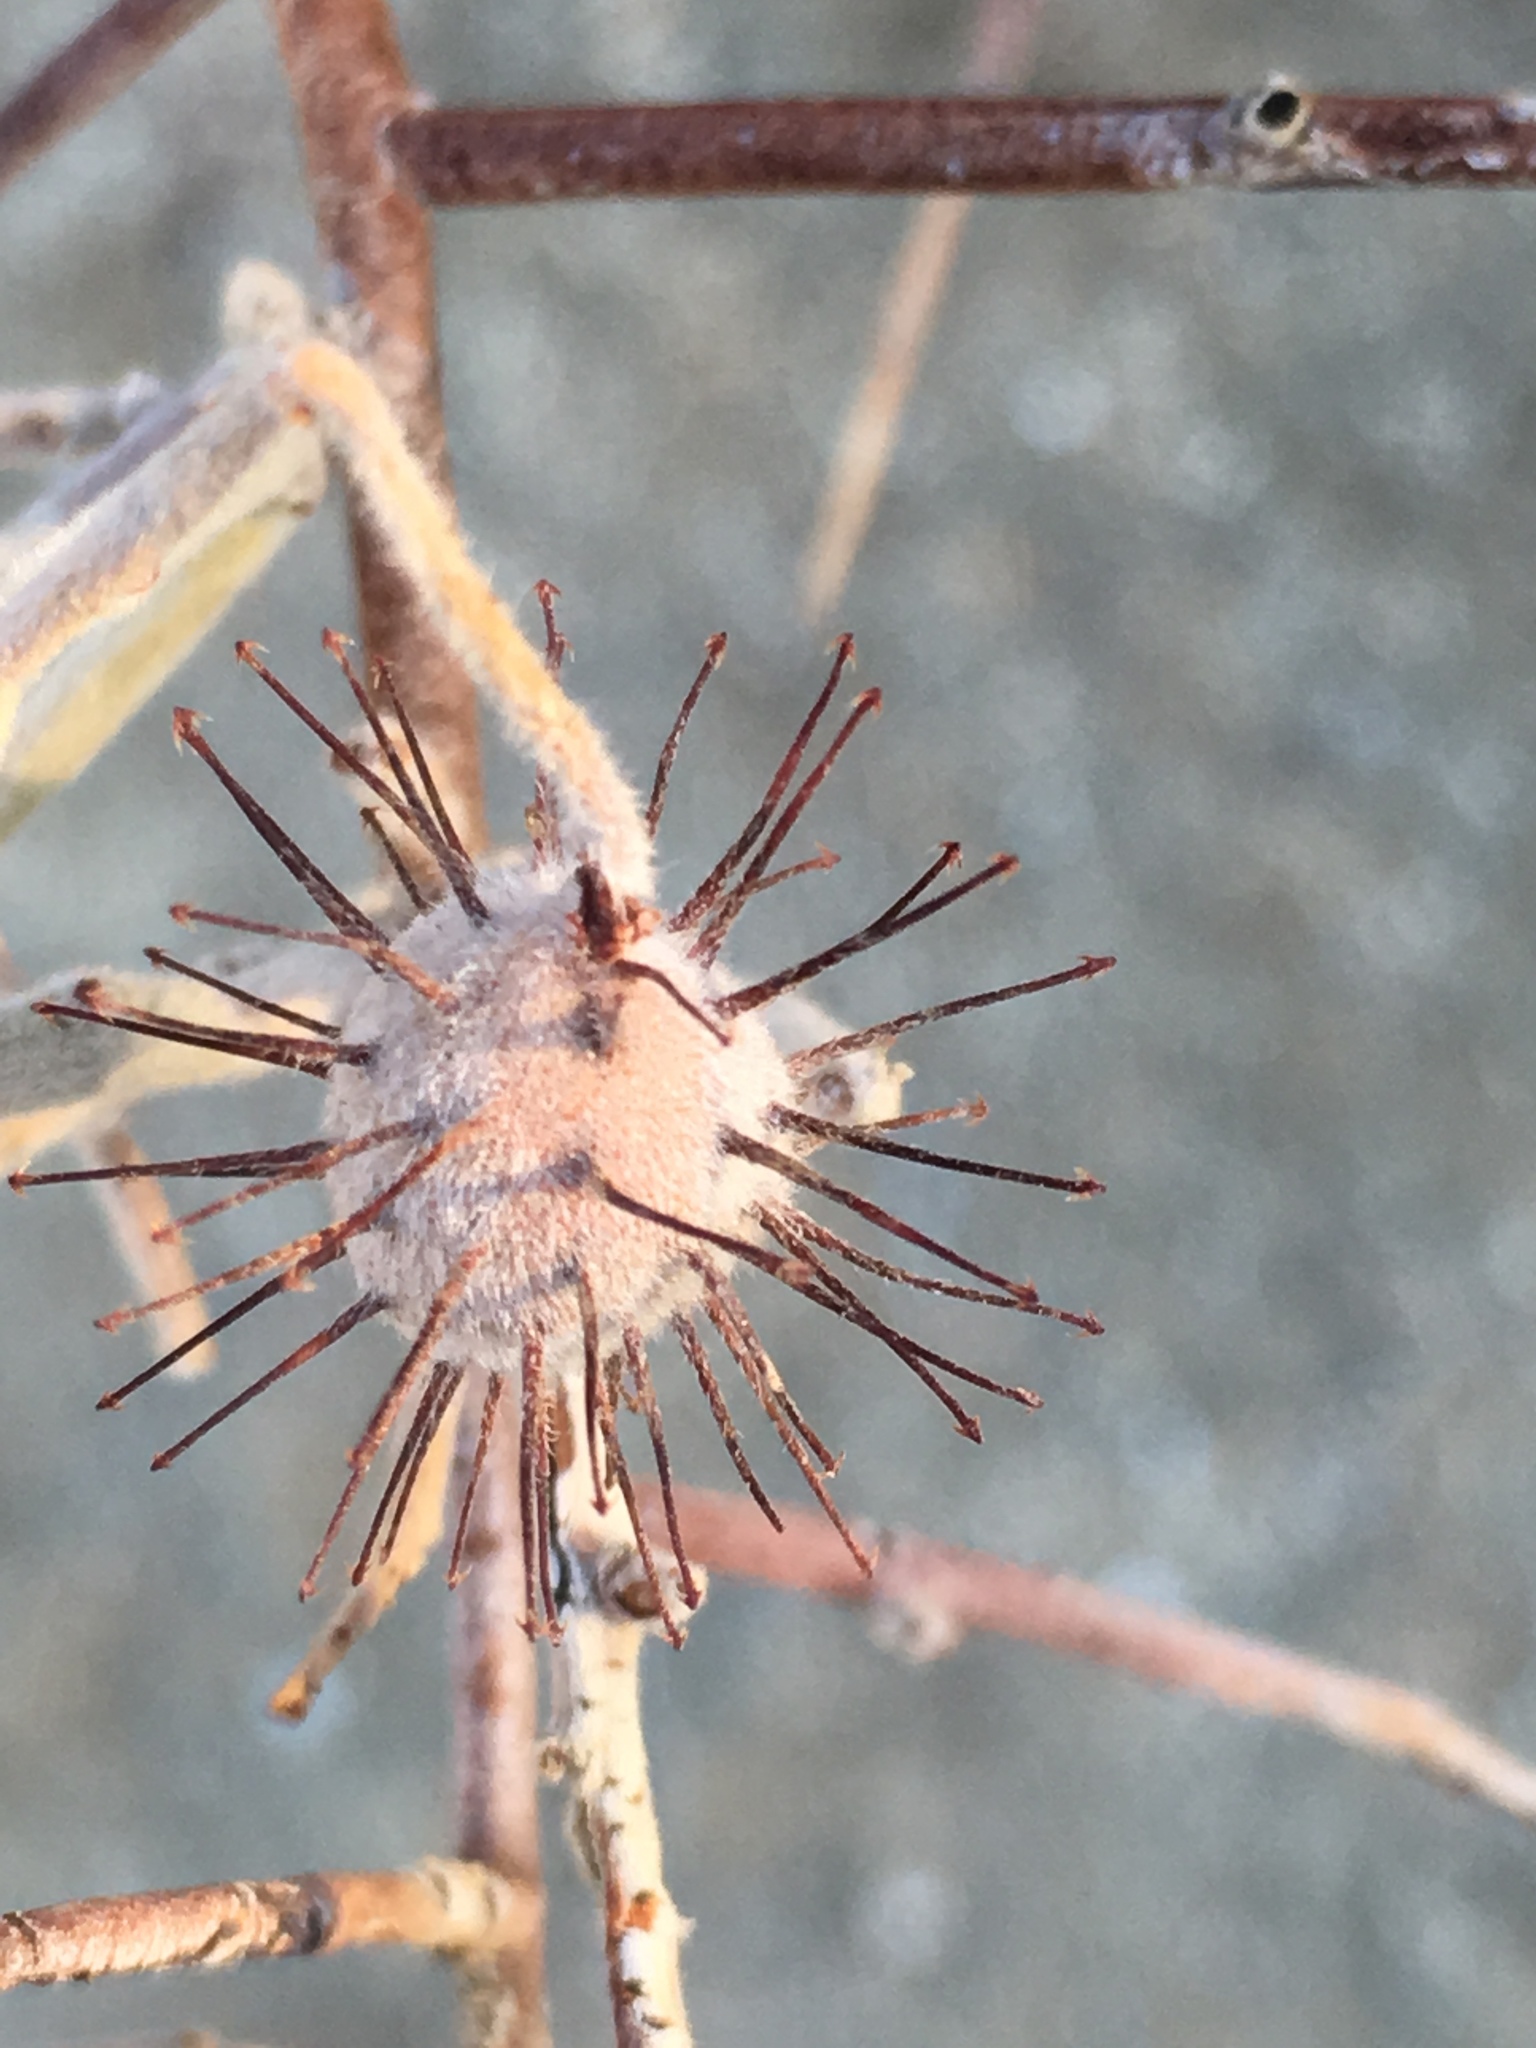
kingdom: Plantae
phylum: Tracheophyta
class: Magnoliopsida
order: Zygophyllales
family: Krameriaceae
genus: Krameria
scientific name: Krameria bicolor
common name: White ratany
